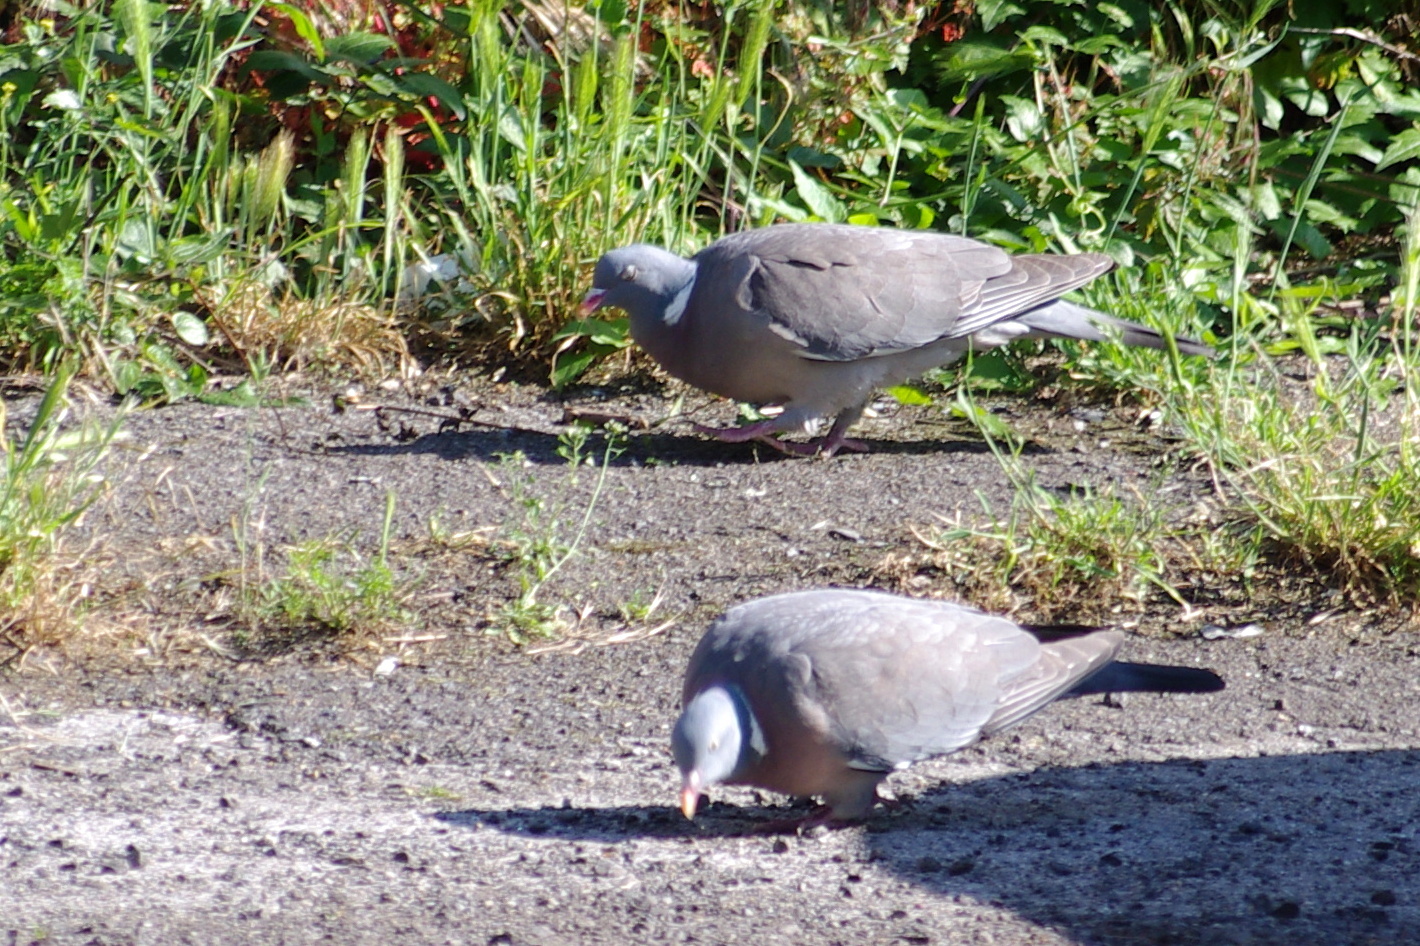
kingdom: Animalia
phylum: Chordata
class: Aves
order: Columbiformes
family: Columbidae
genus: Columba
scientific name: Columba palumbus
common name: Common wood pigeon
